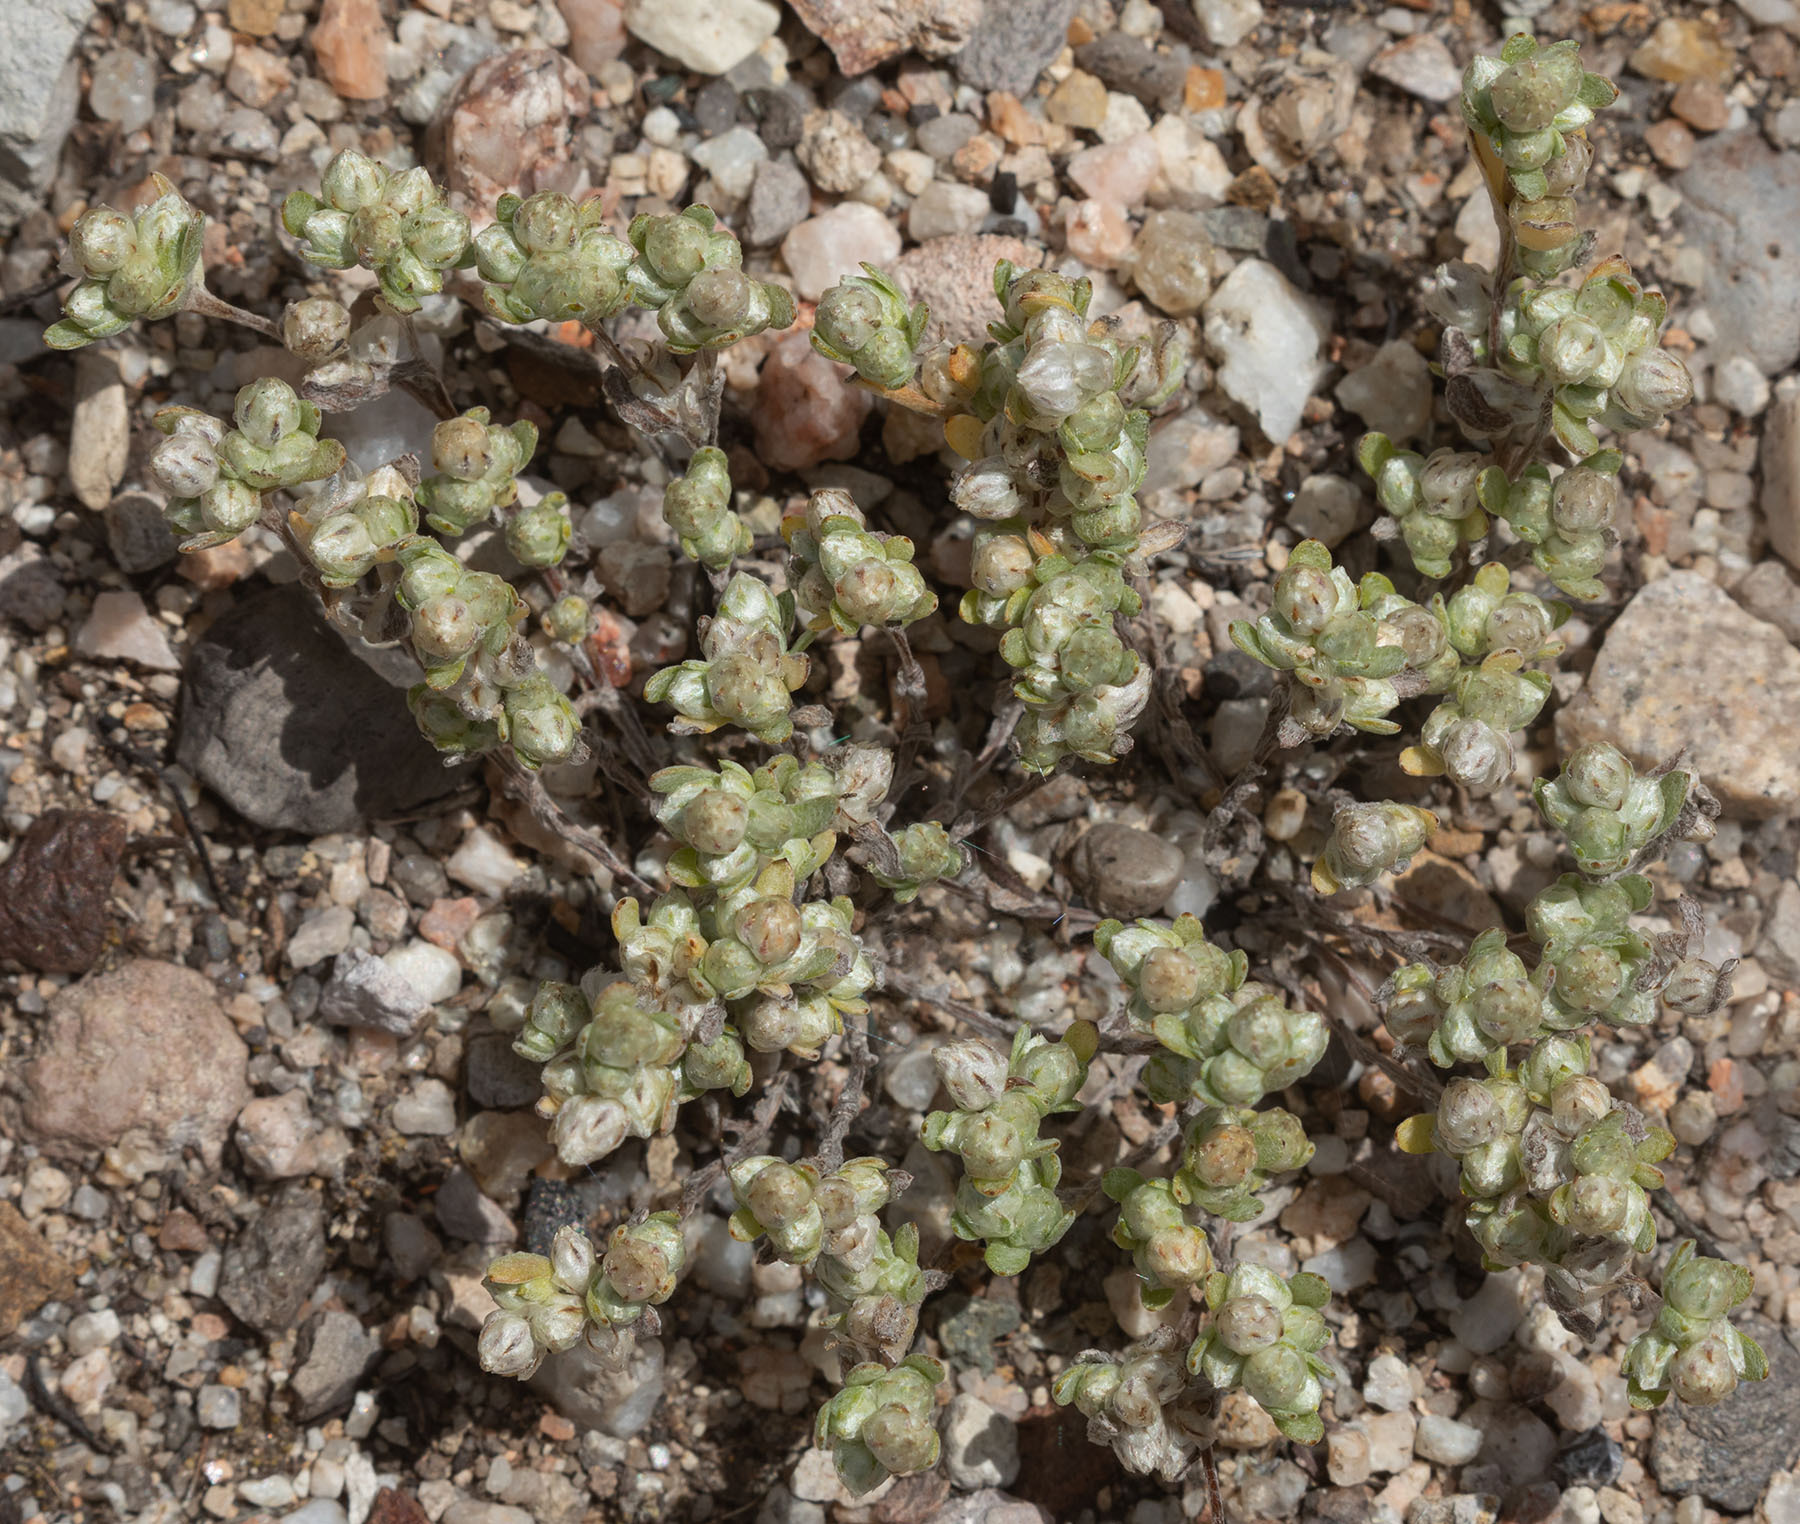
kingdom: Plantae
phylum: Tracheophyta
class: Magnoliopsida
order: Asterales
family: Asteraceae
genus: Stylocline
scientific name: Stylocline gnaphaloides
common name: Everlasting nest-straw
